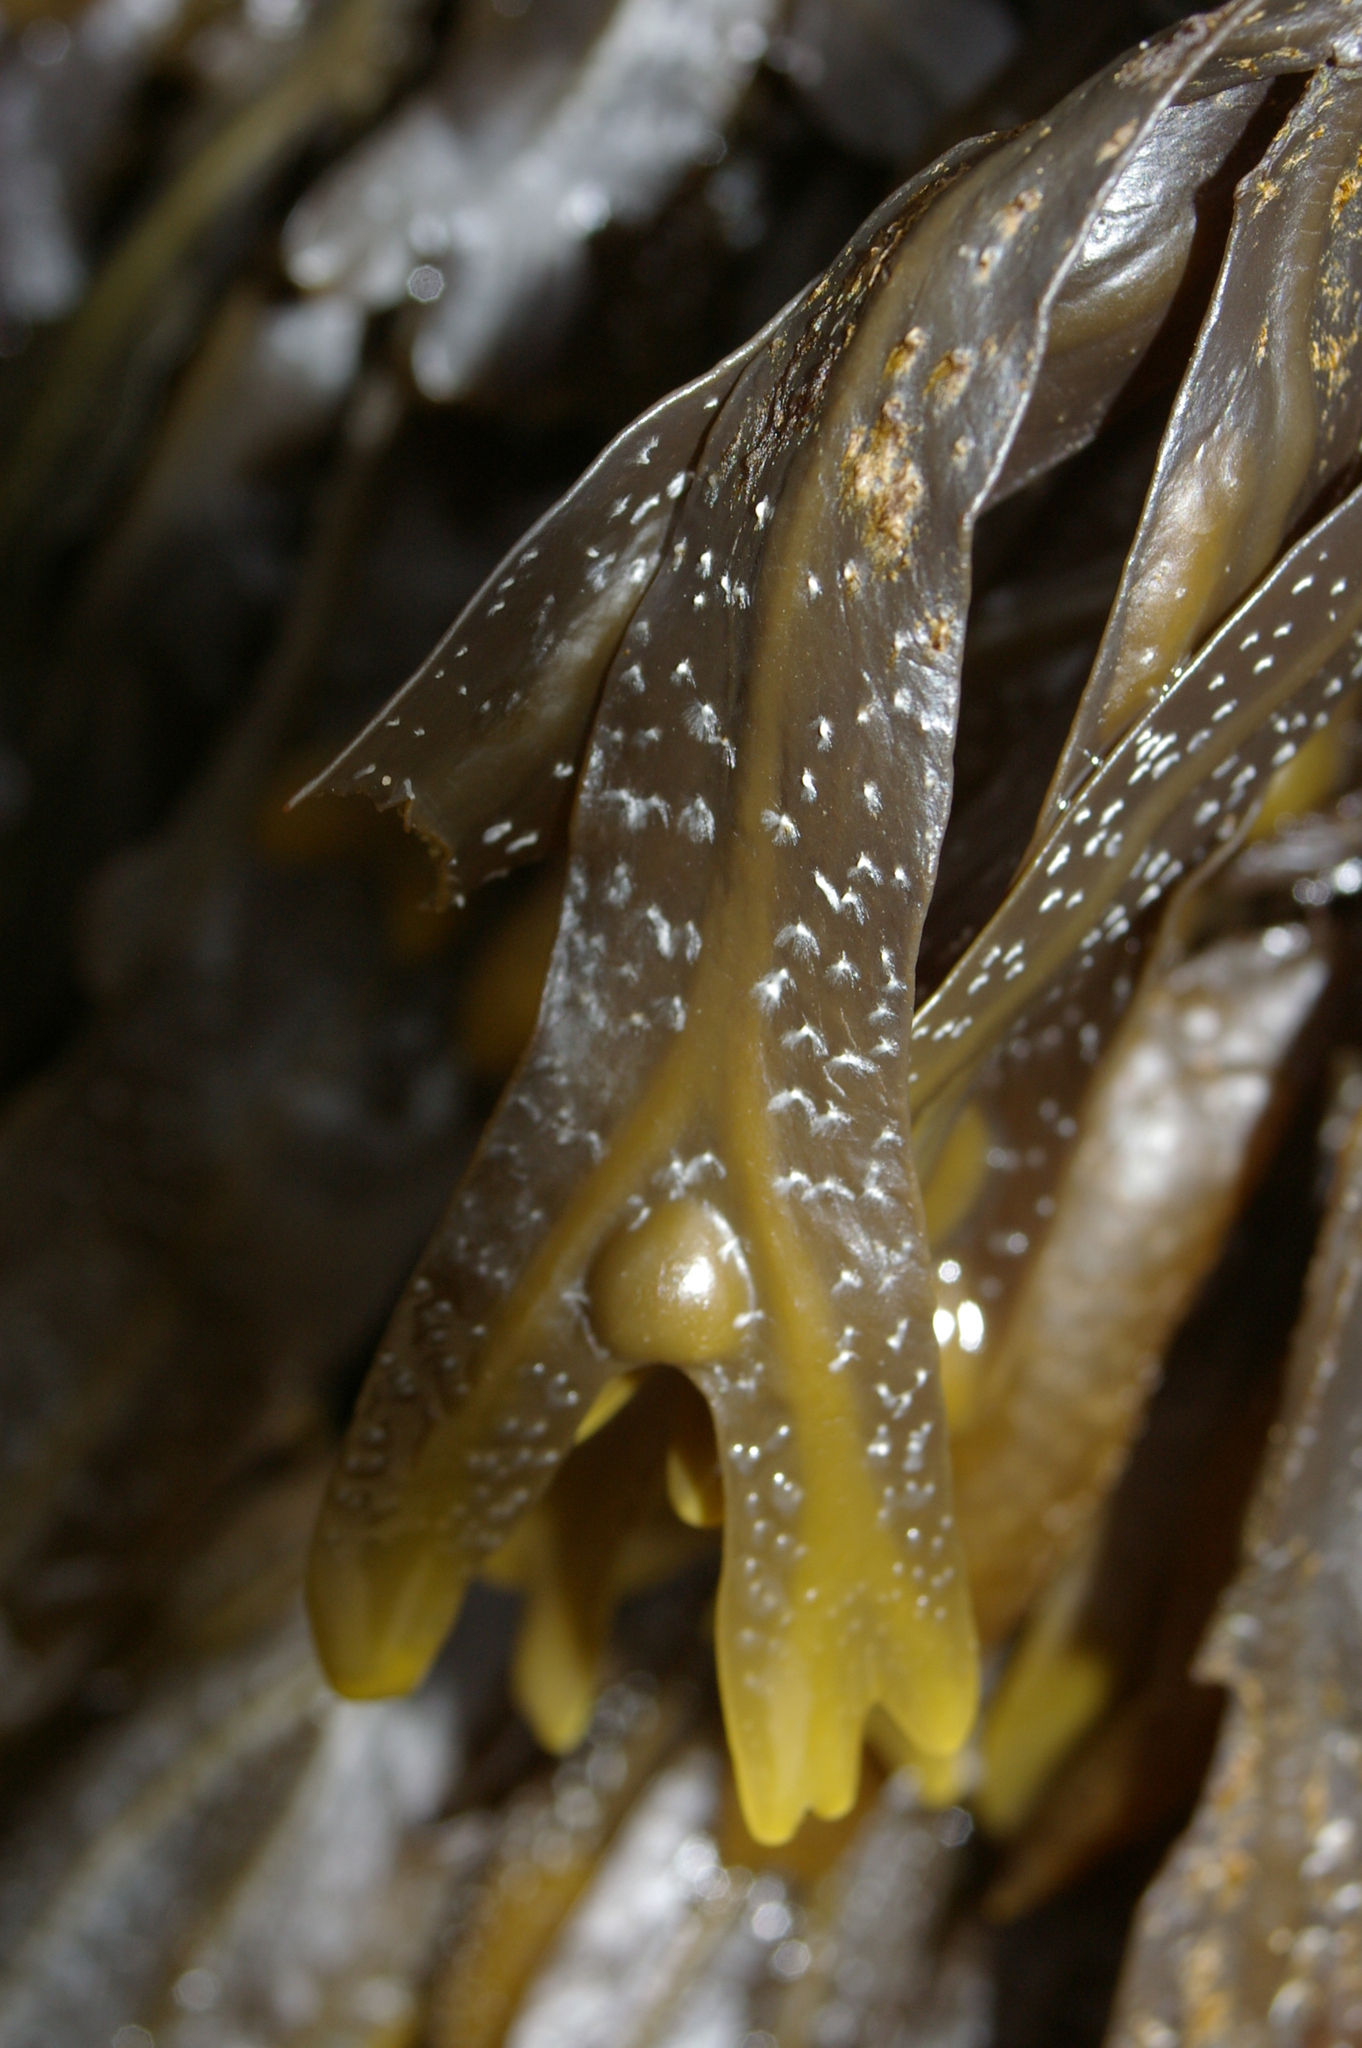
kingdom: Chromista
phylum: Ochrophyta
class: Phaeophyceae
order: Fucales
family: Fucaceae
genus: Fucus
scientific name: Fucus vesiculosus
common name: Bladder wrack
